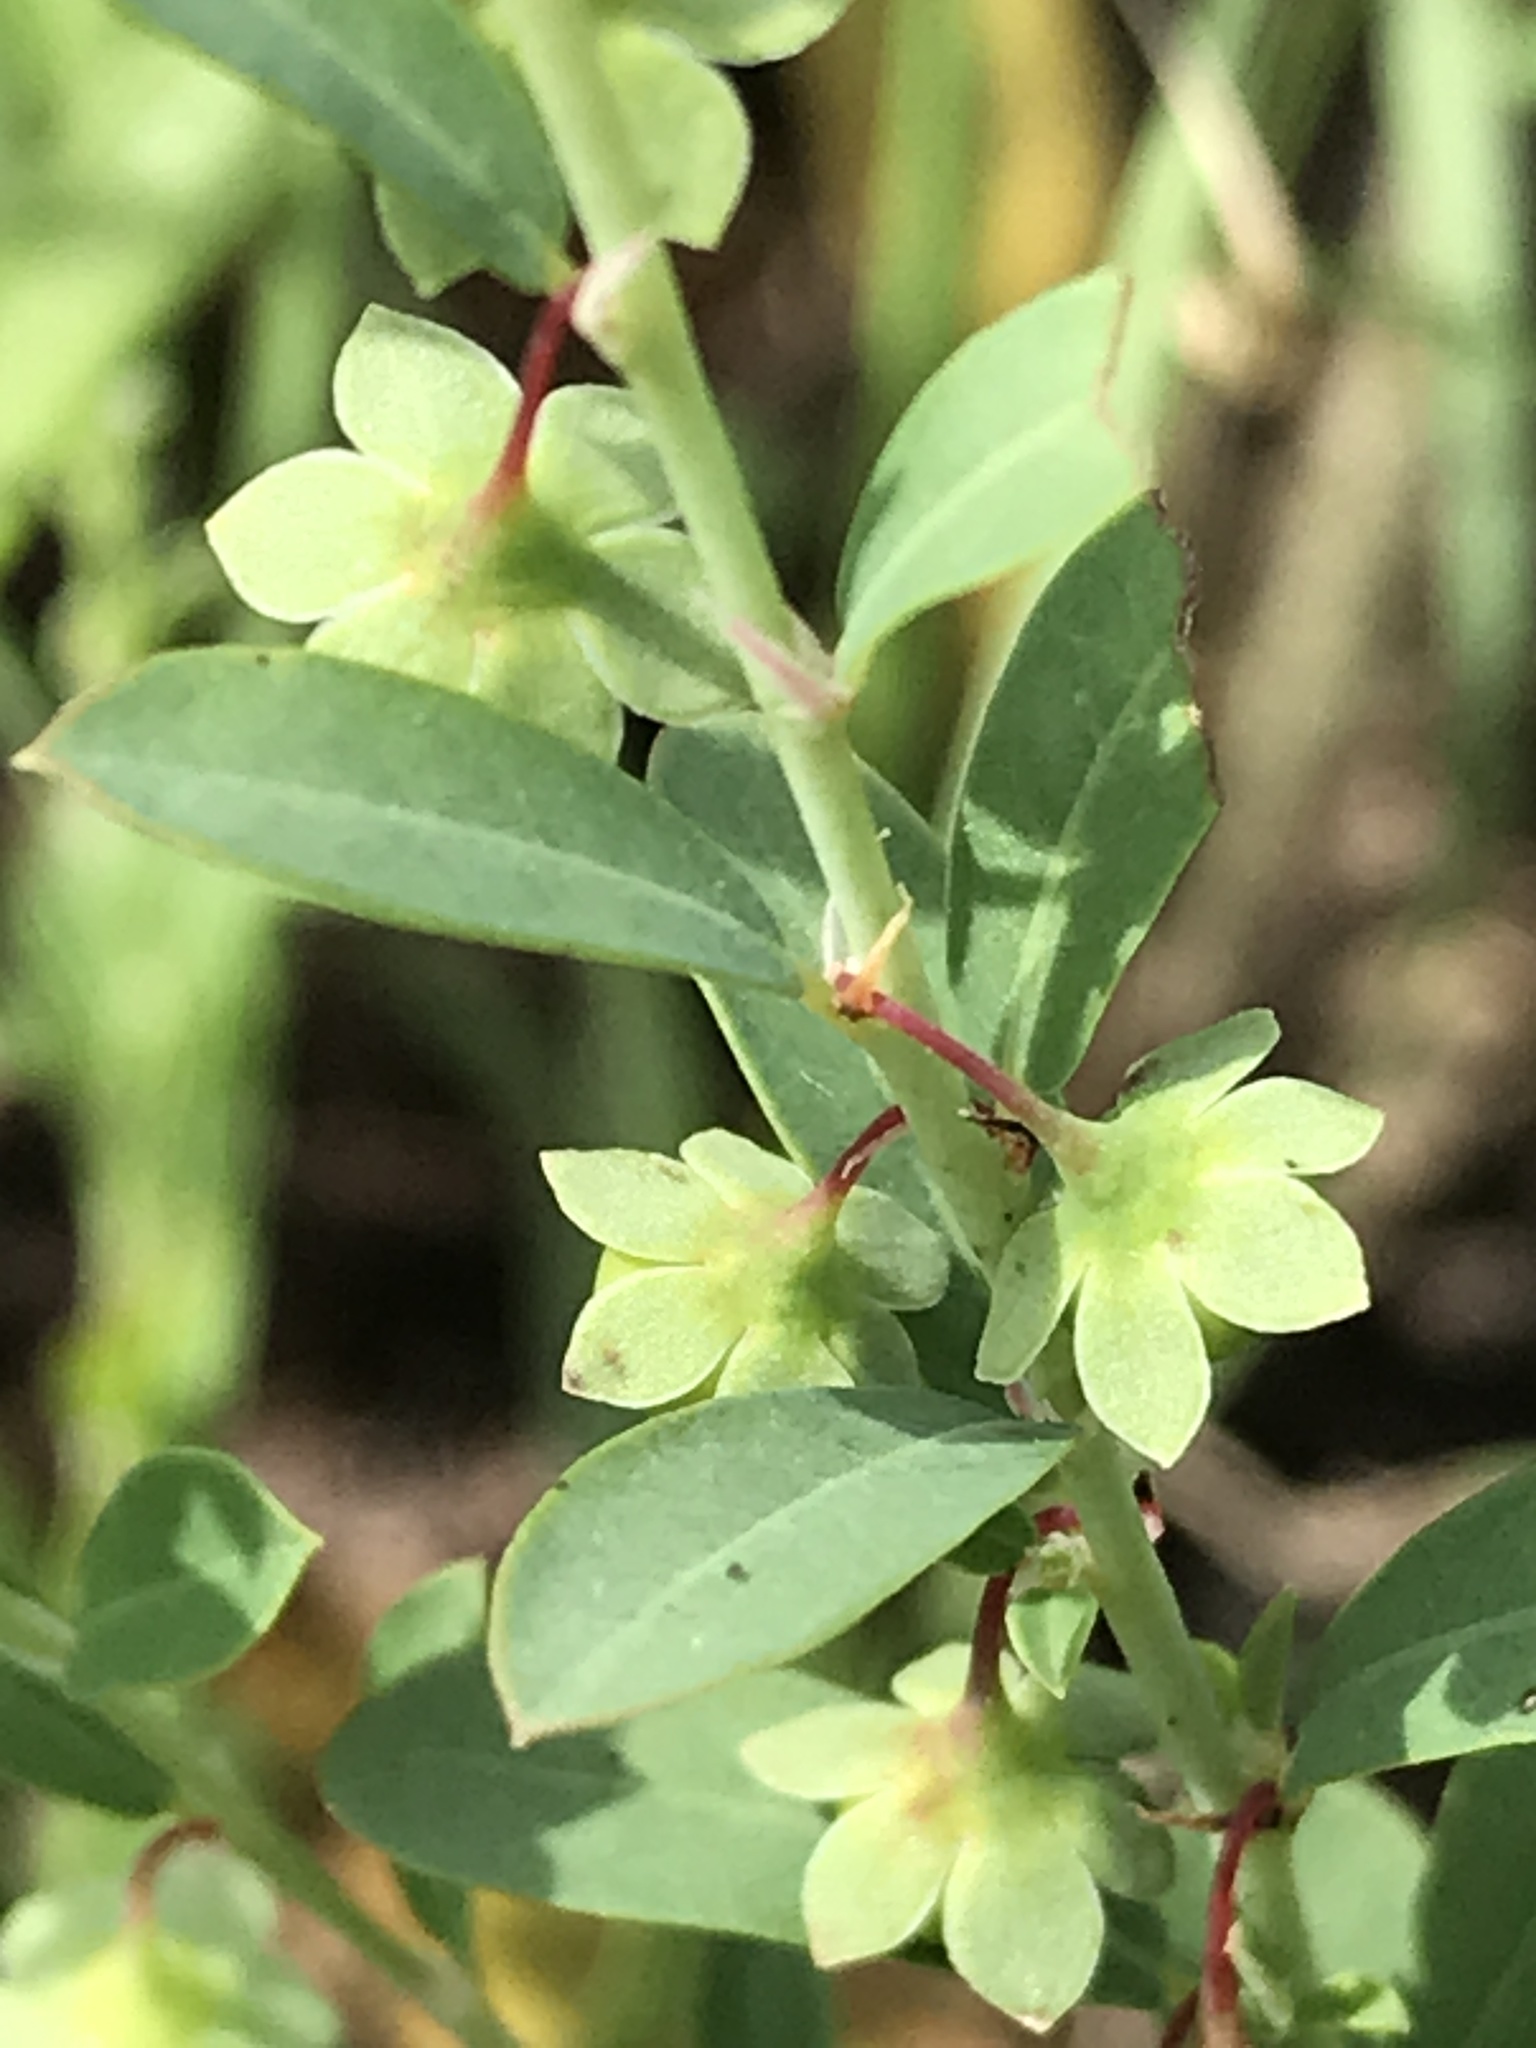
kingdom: Plantae
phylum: Tracheophyta
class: Magnoliopsida
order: Malpighiales
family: Phyllanthaceae
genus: Phyllanthus
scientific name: Phyllanthus polygonoides
